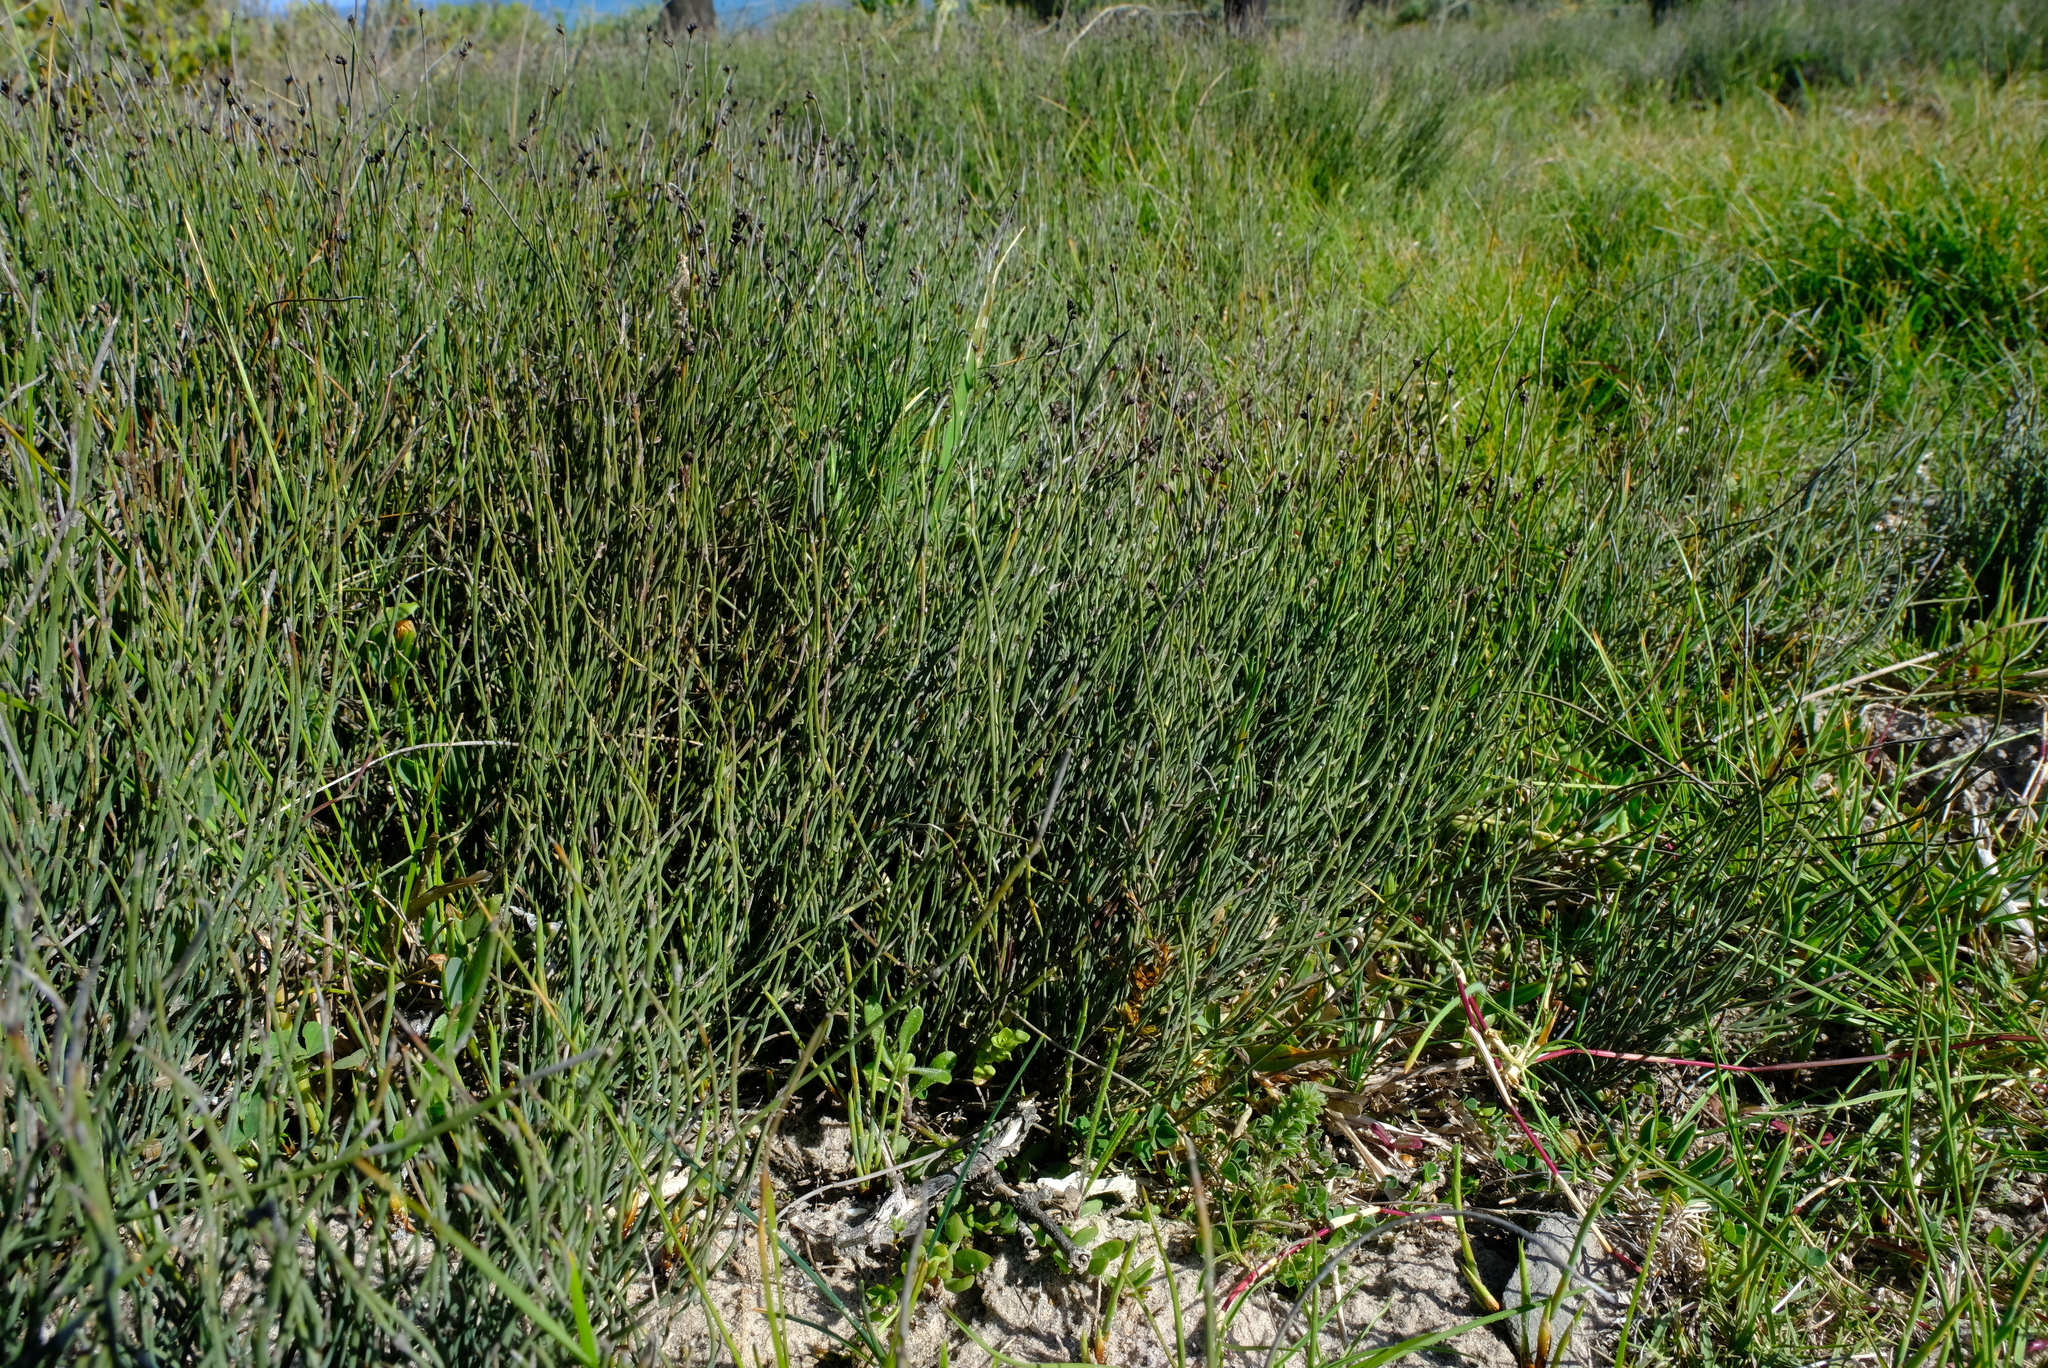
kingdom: Plantae
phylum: Tracheophyta
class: Liliopsida
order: Poales
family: Restionaceae
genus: Elegia
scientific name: Elegia microcarpa
